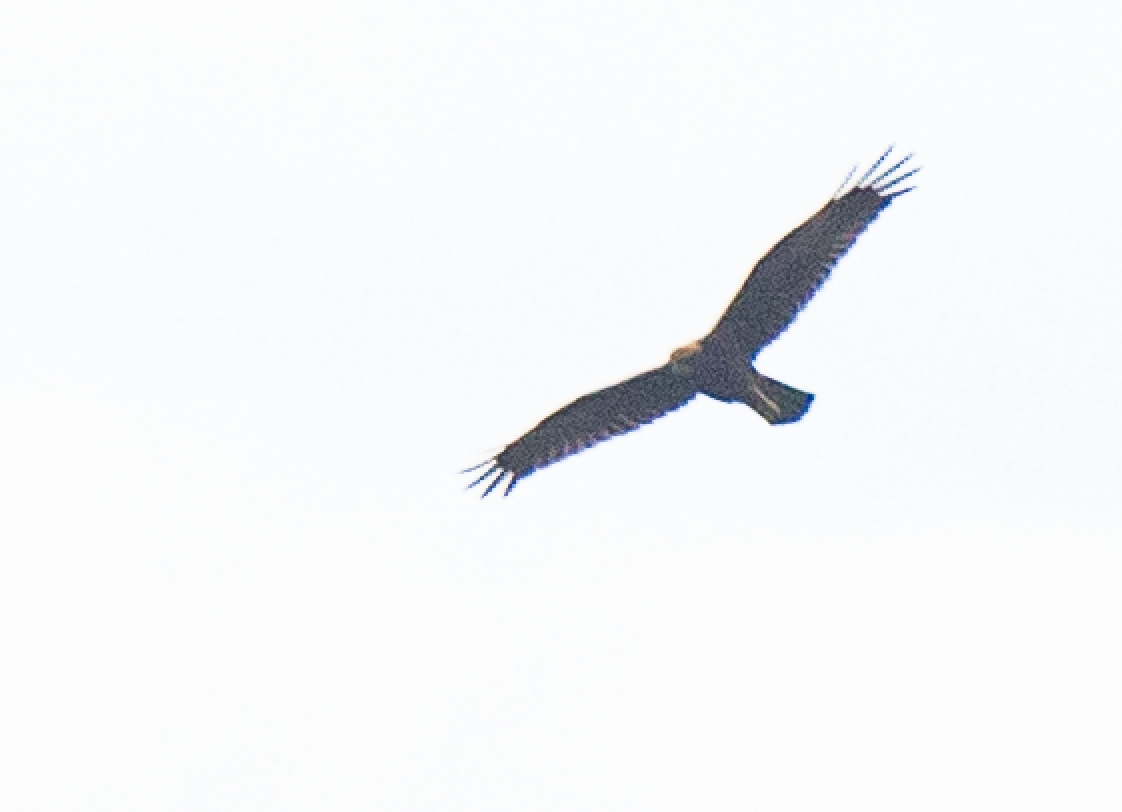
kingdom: Animalia
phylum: Chordata
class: Aves
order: Accipitriformes
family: Accipitridae
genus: Circus
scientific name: Circus aeruginosus
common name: Western marsh harrier
